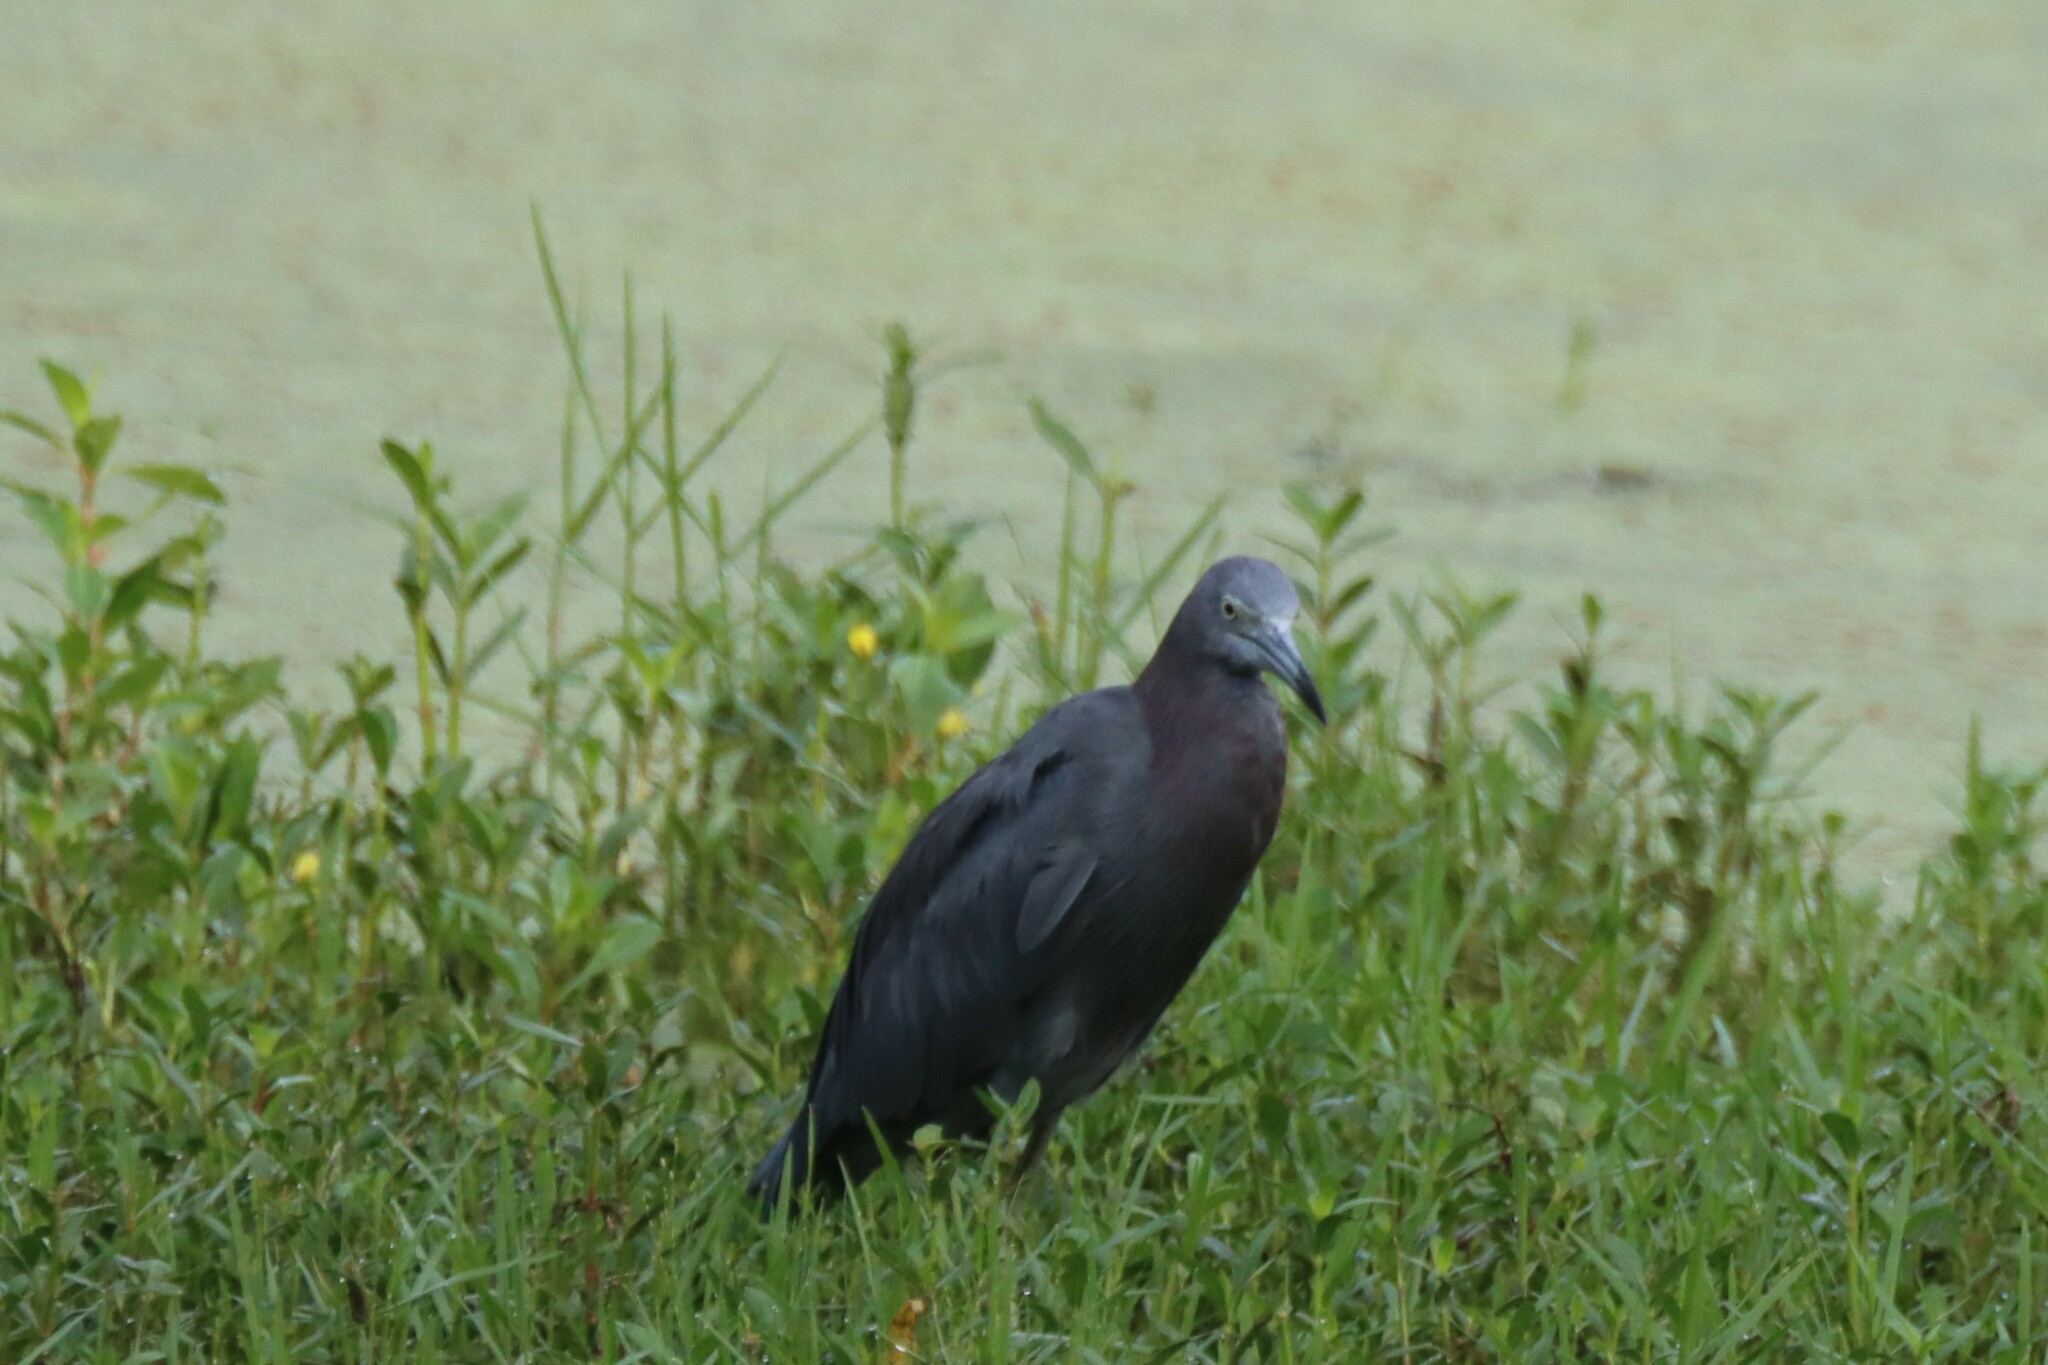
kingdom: Animalia
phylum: Chordata
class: Aves
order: Pelecaniformes
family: Ardeidae
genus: Egretta
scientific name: Egretta caerulea
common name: Little blue heron
